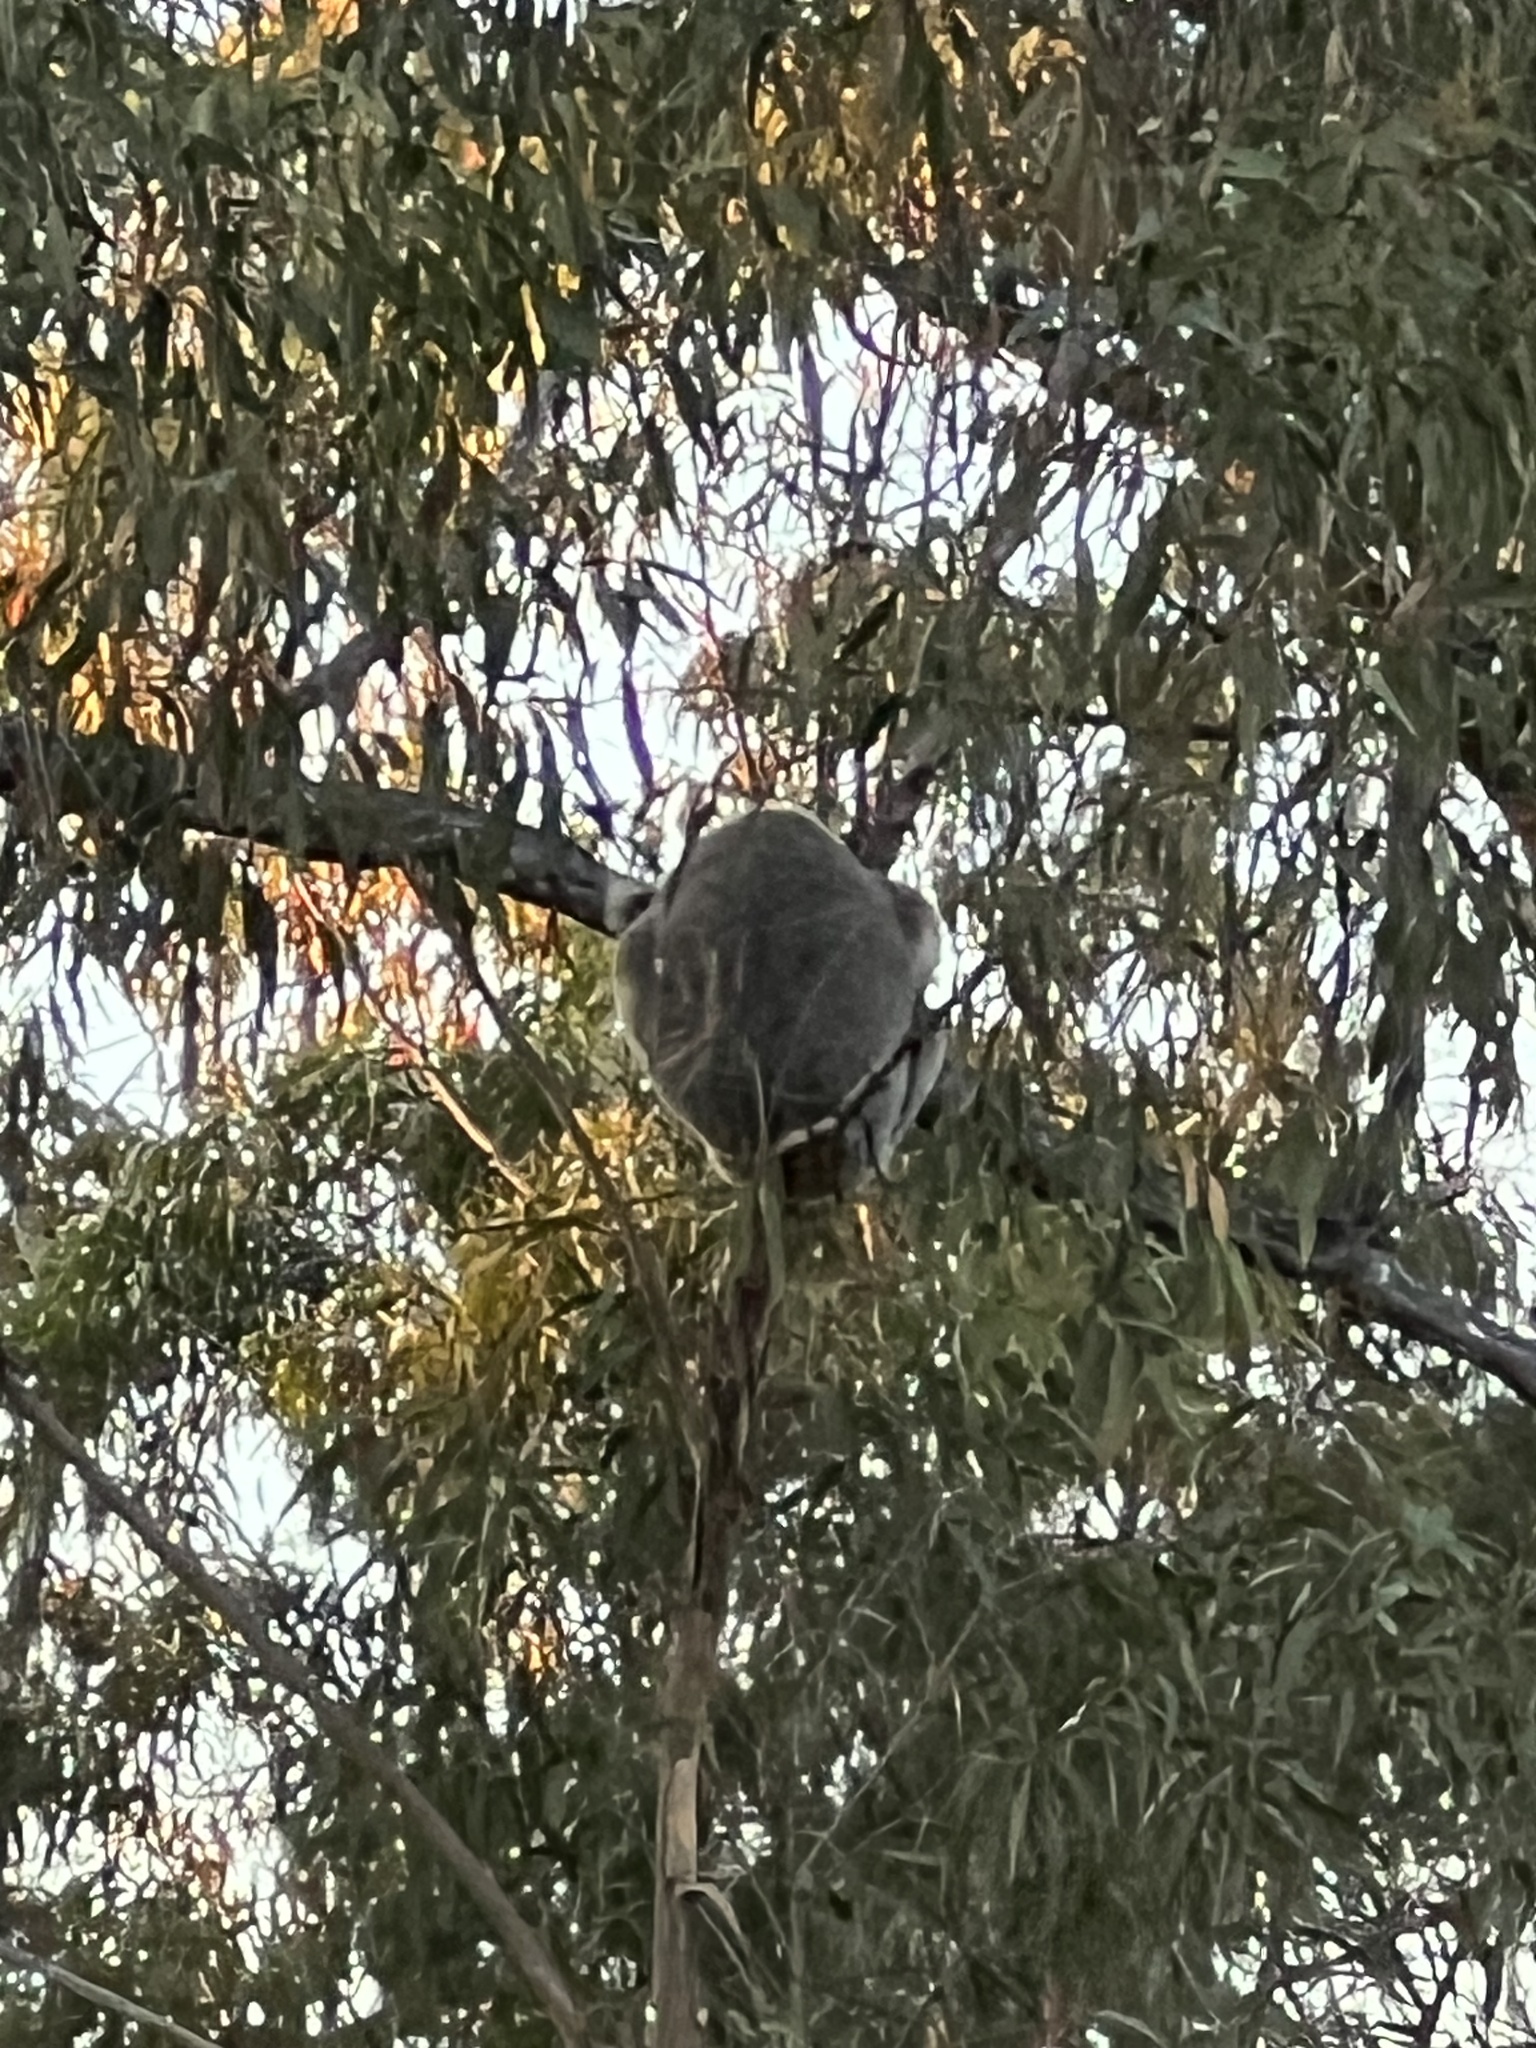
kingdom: Animalia
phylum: Chordata
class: Mammalia
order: Diprotodontia
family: Phascolarctidae
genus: Phascolarctos
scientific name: Phascolarctos cinereus
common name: Koala
